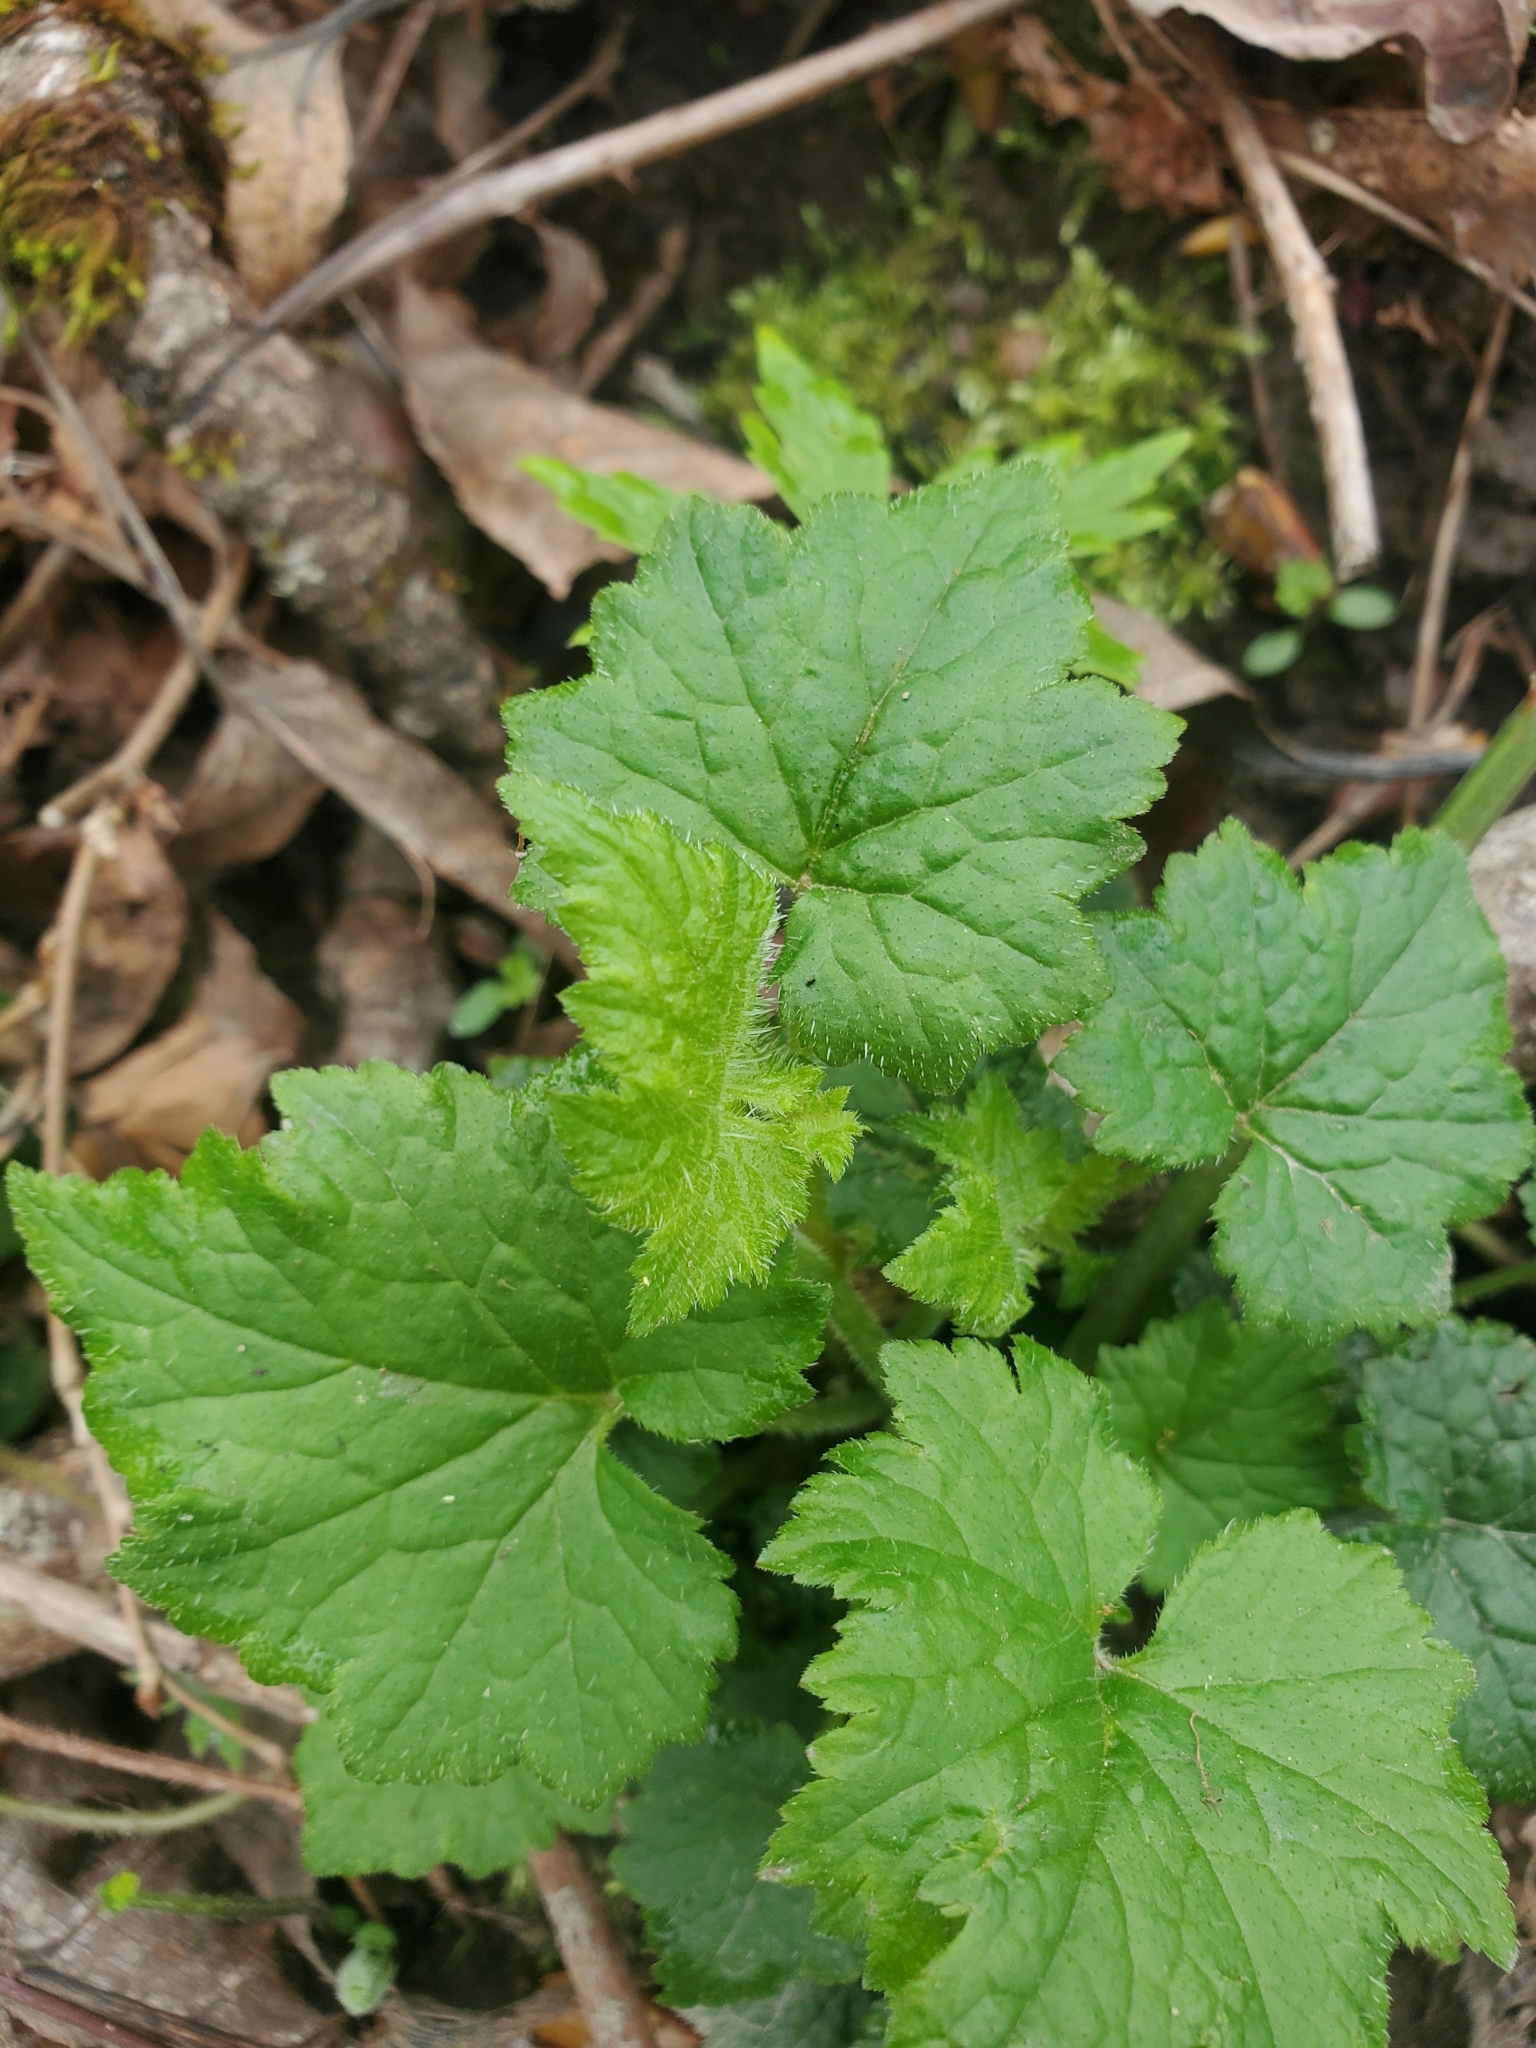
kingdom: Plantae
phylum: Tracheophyta
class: Magnoliopsida
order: Saxifragales
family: Saxifragaceae
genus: Tolmiea
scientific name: Tolmiea menziesii
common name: Pick-a-back-plant
